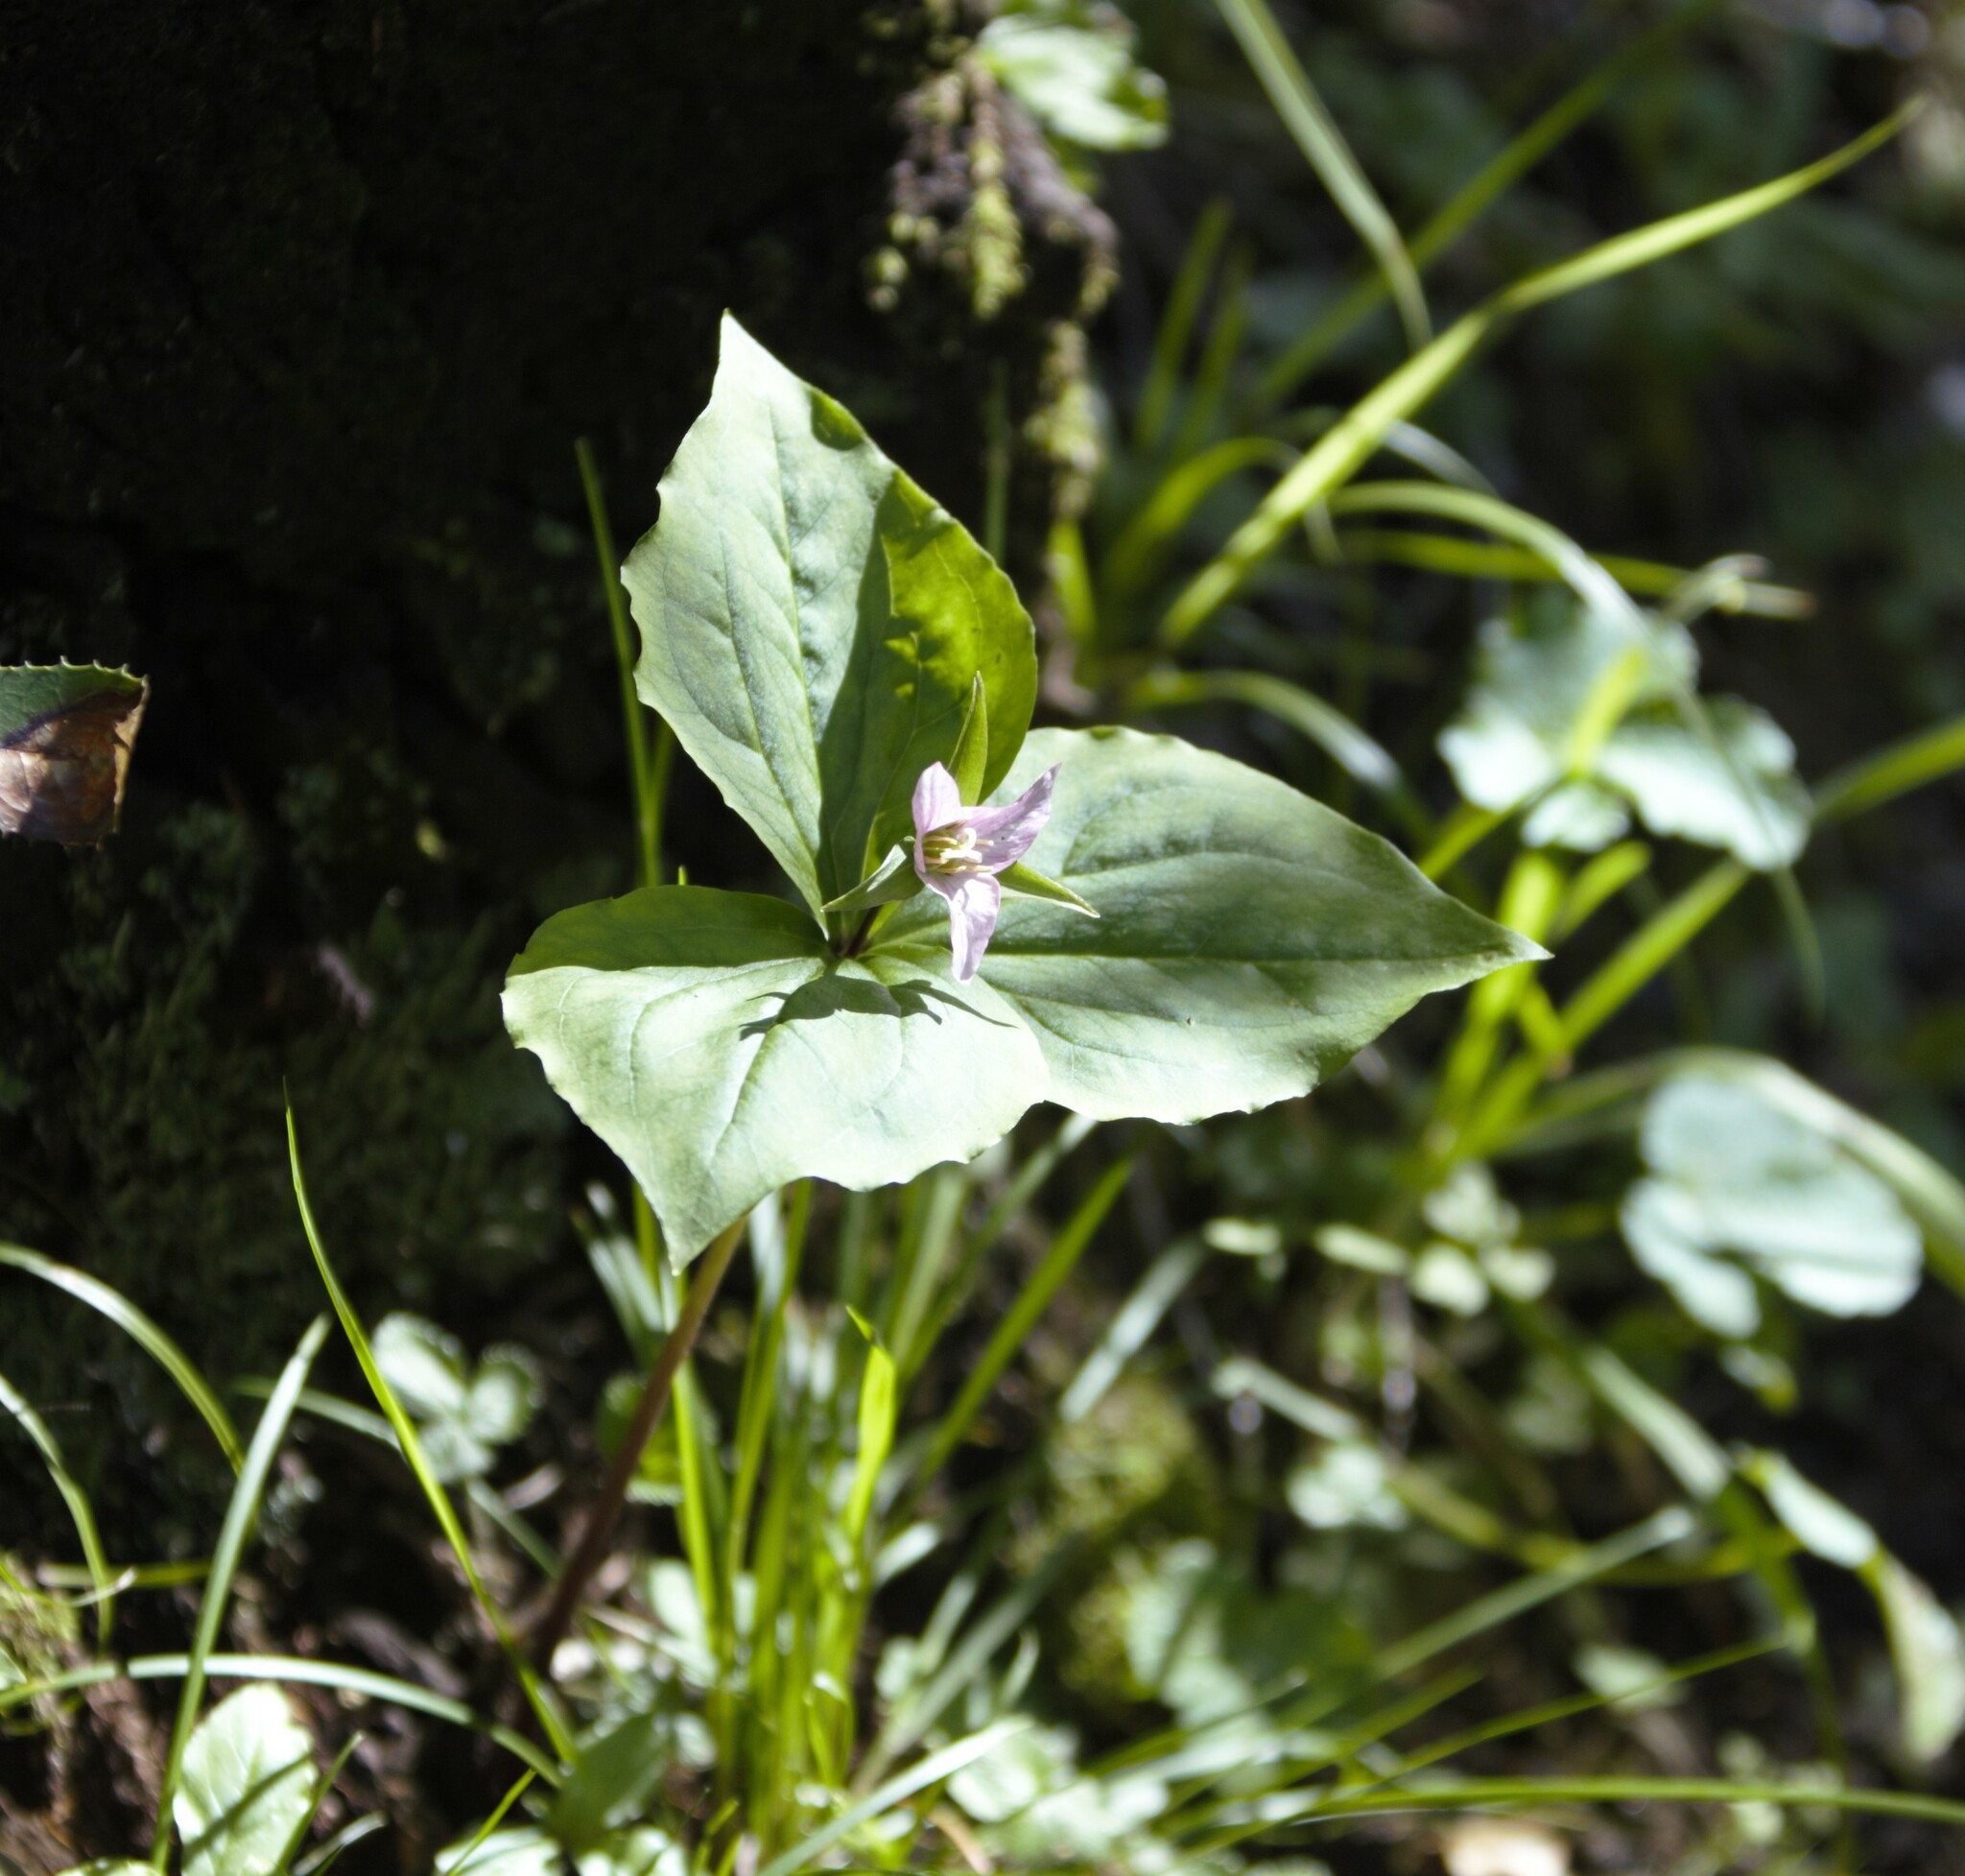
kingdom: Plantae
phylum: Tracheophyta
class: Liliopsida
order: Liliales
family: Melanthiaceae
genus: Trillium
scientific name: Trillium ovatum
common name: Pacific trillium
